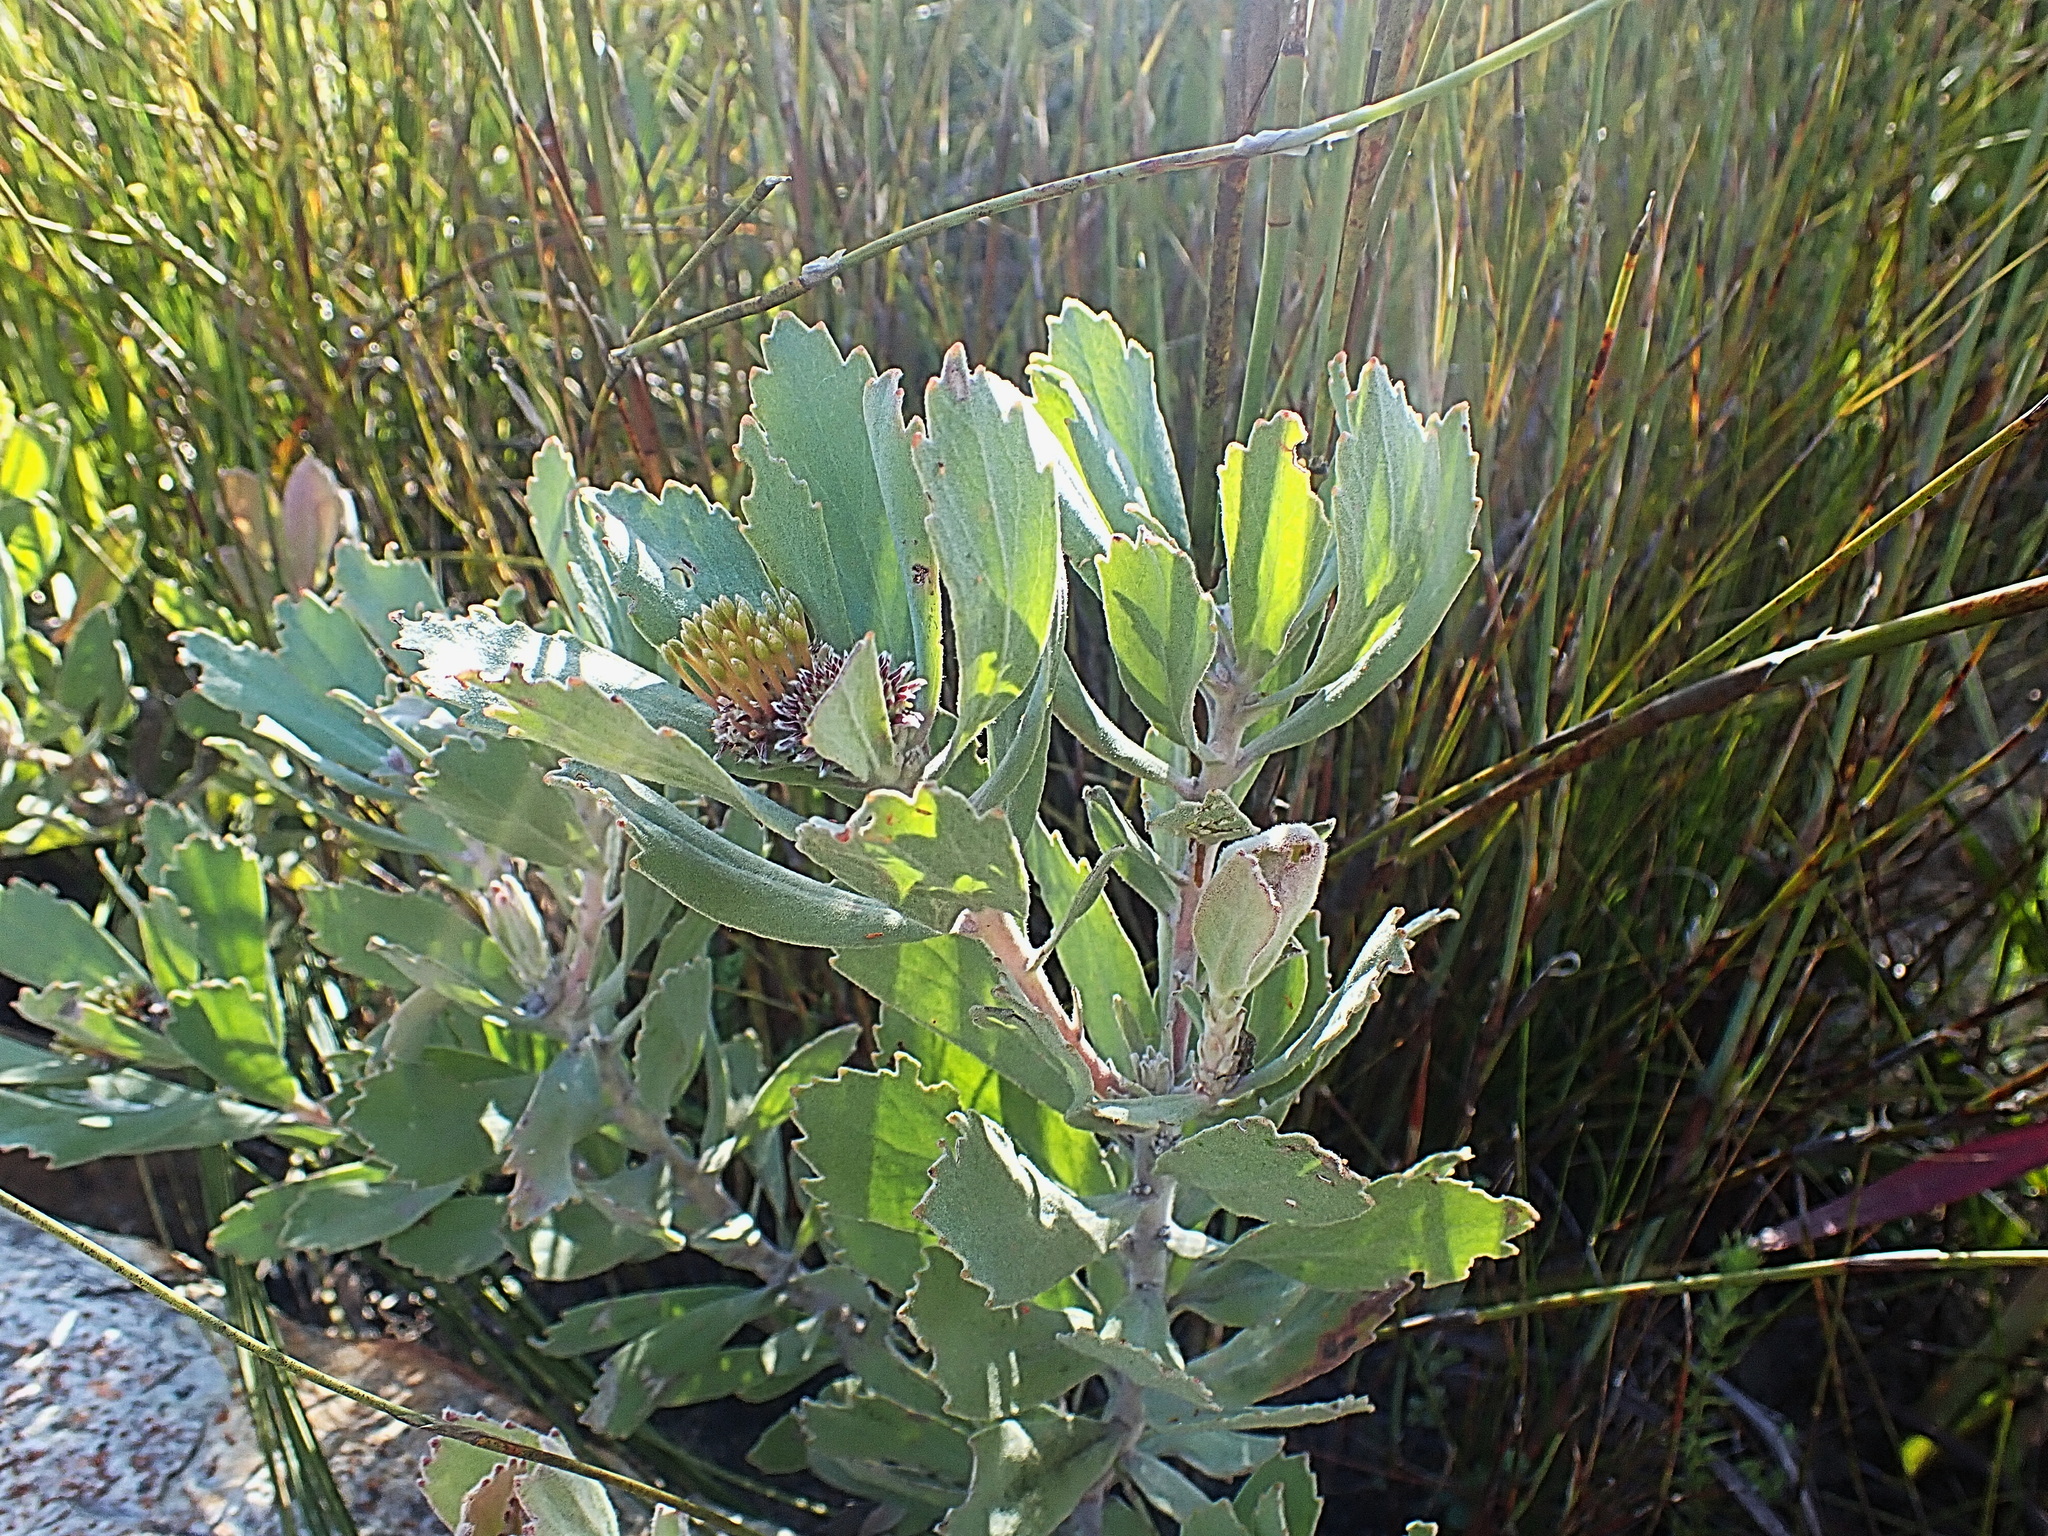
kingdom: Plantae
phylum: Tracheophyta
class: Magnoliopsida
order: Proteales
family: Proteaceae
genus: Leucospermum
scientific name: Leucospermum mundii
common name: Langeberg pincushion
